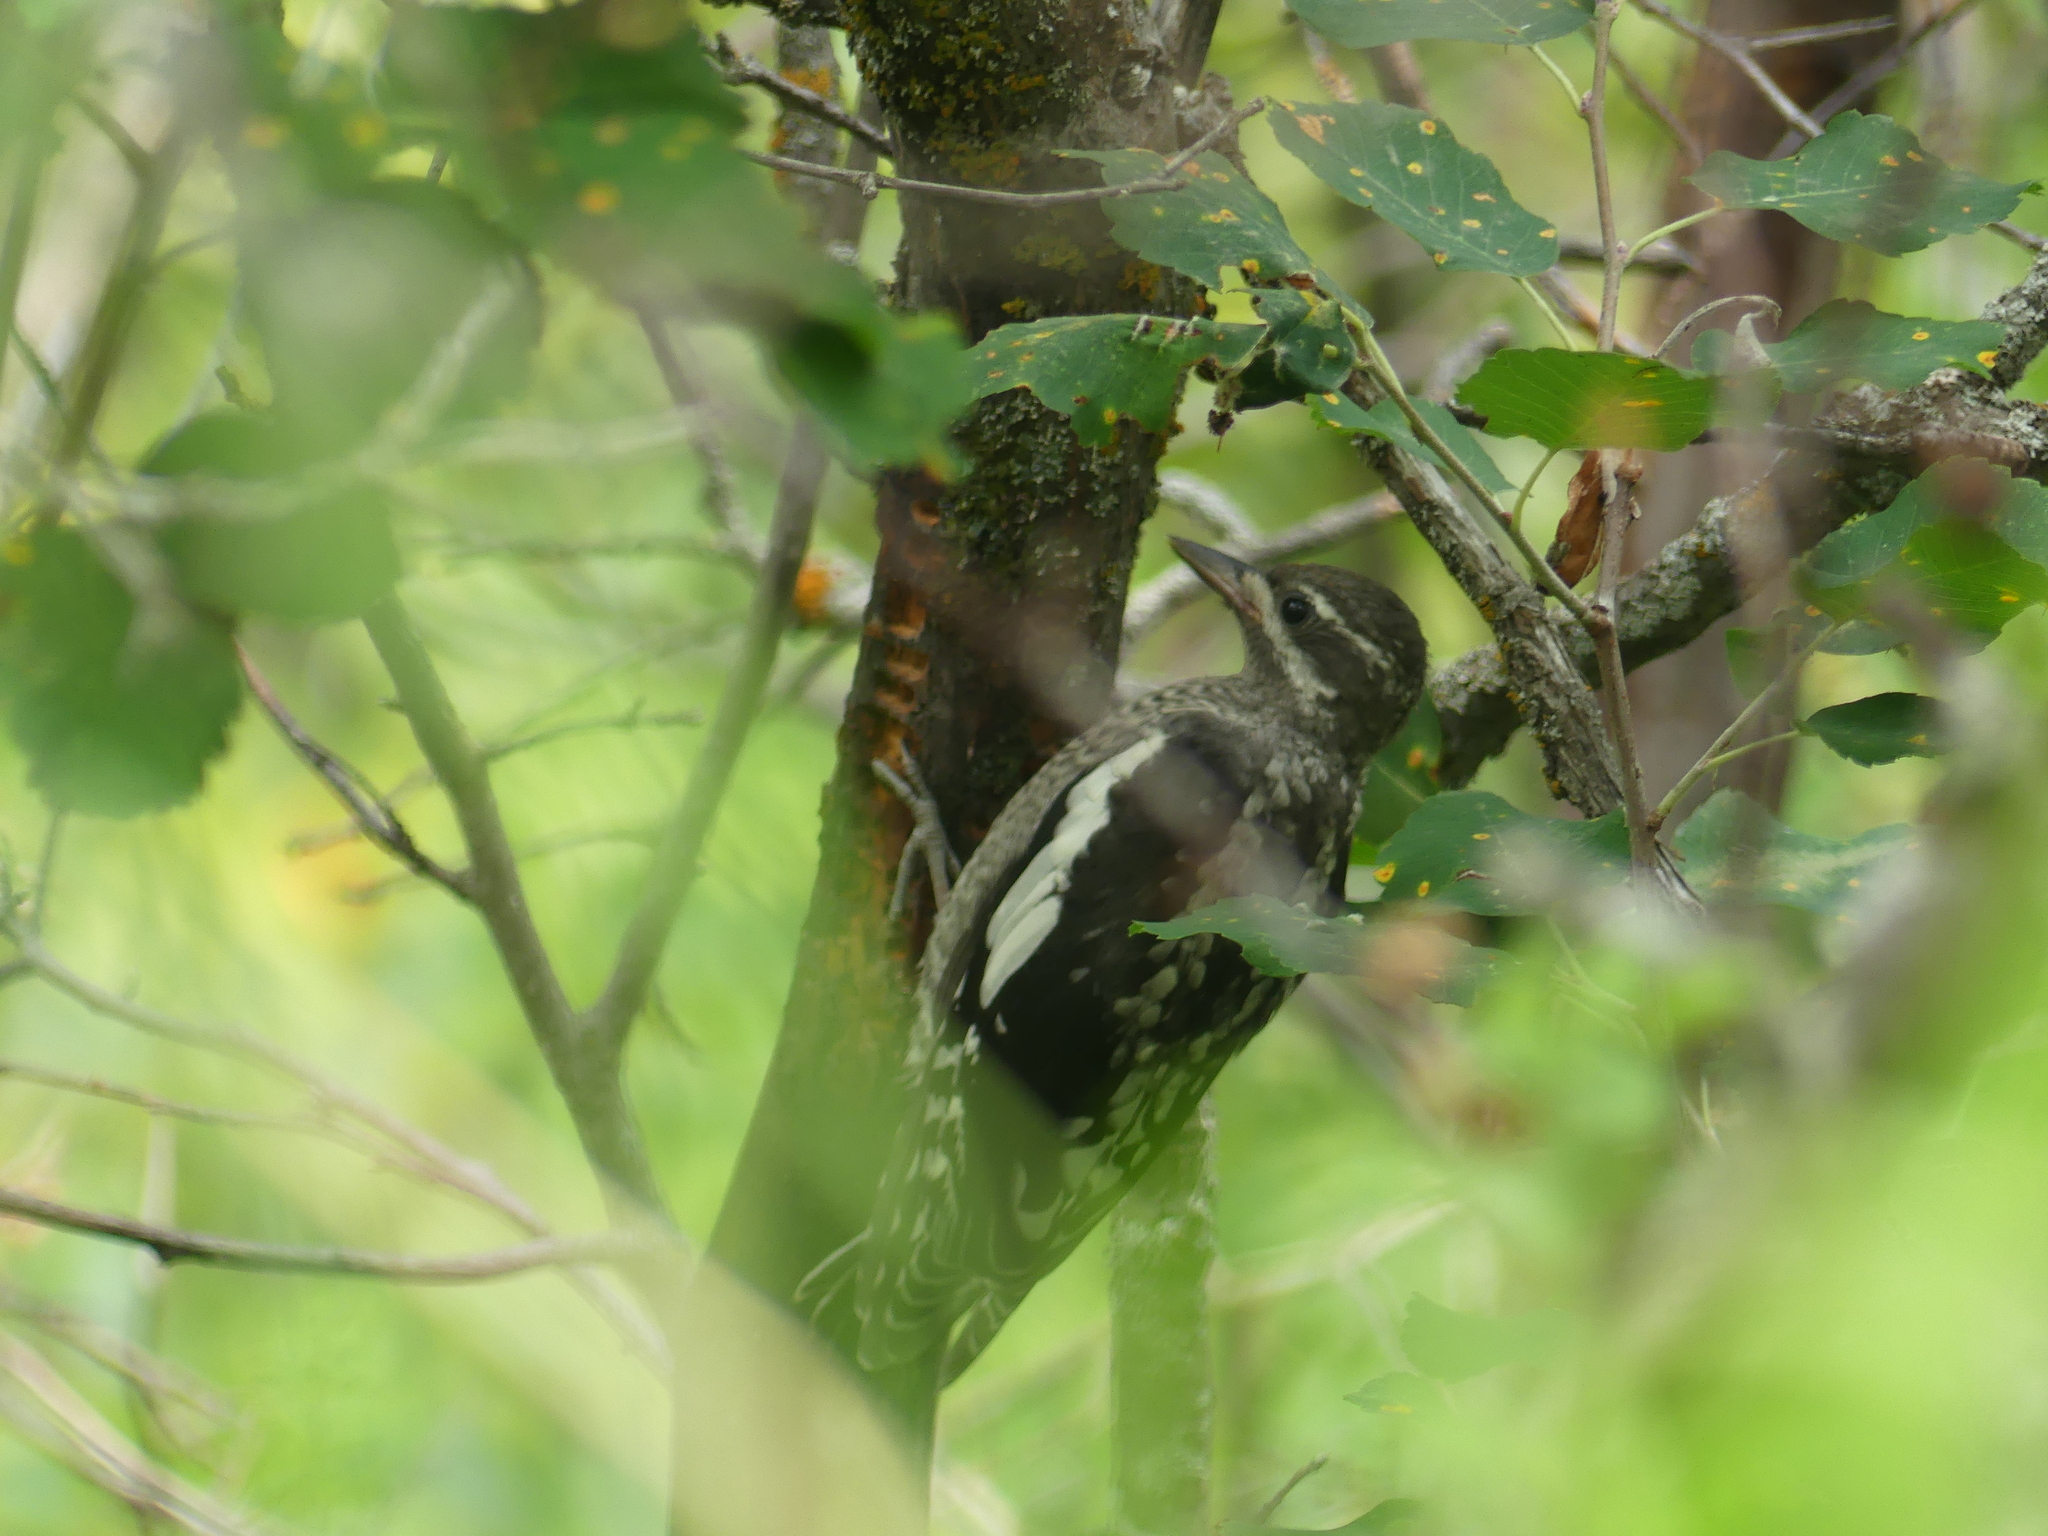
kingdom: Animalia
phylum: Chordata
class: Aves
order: Piciformes
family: Picidae
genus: Sphyrapicus
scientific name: Sphyrapicus varius
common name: Yellow-bellied sapsucker
